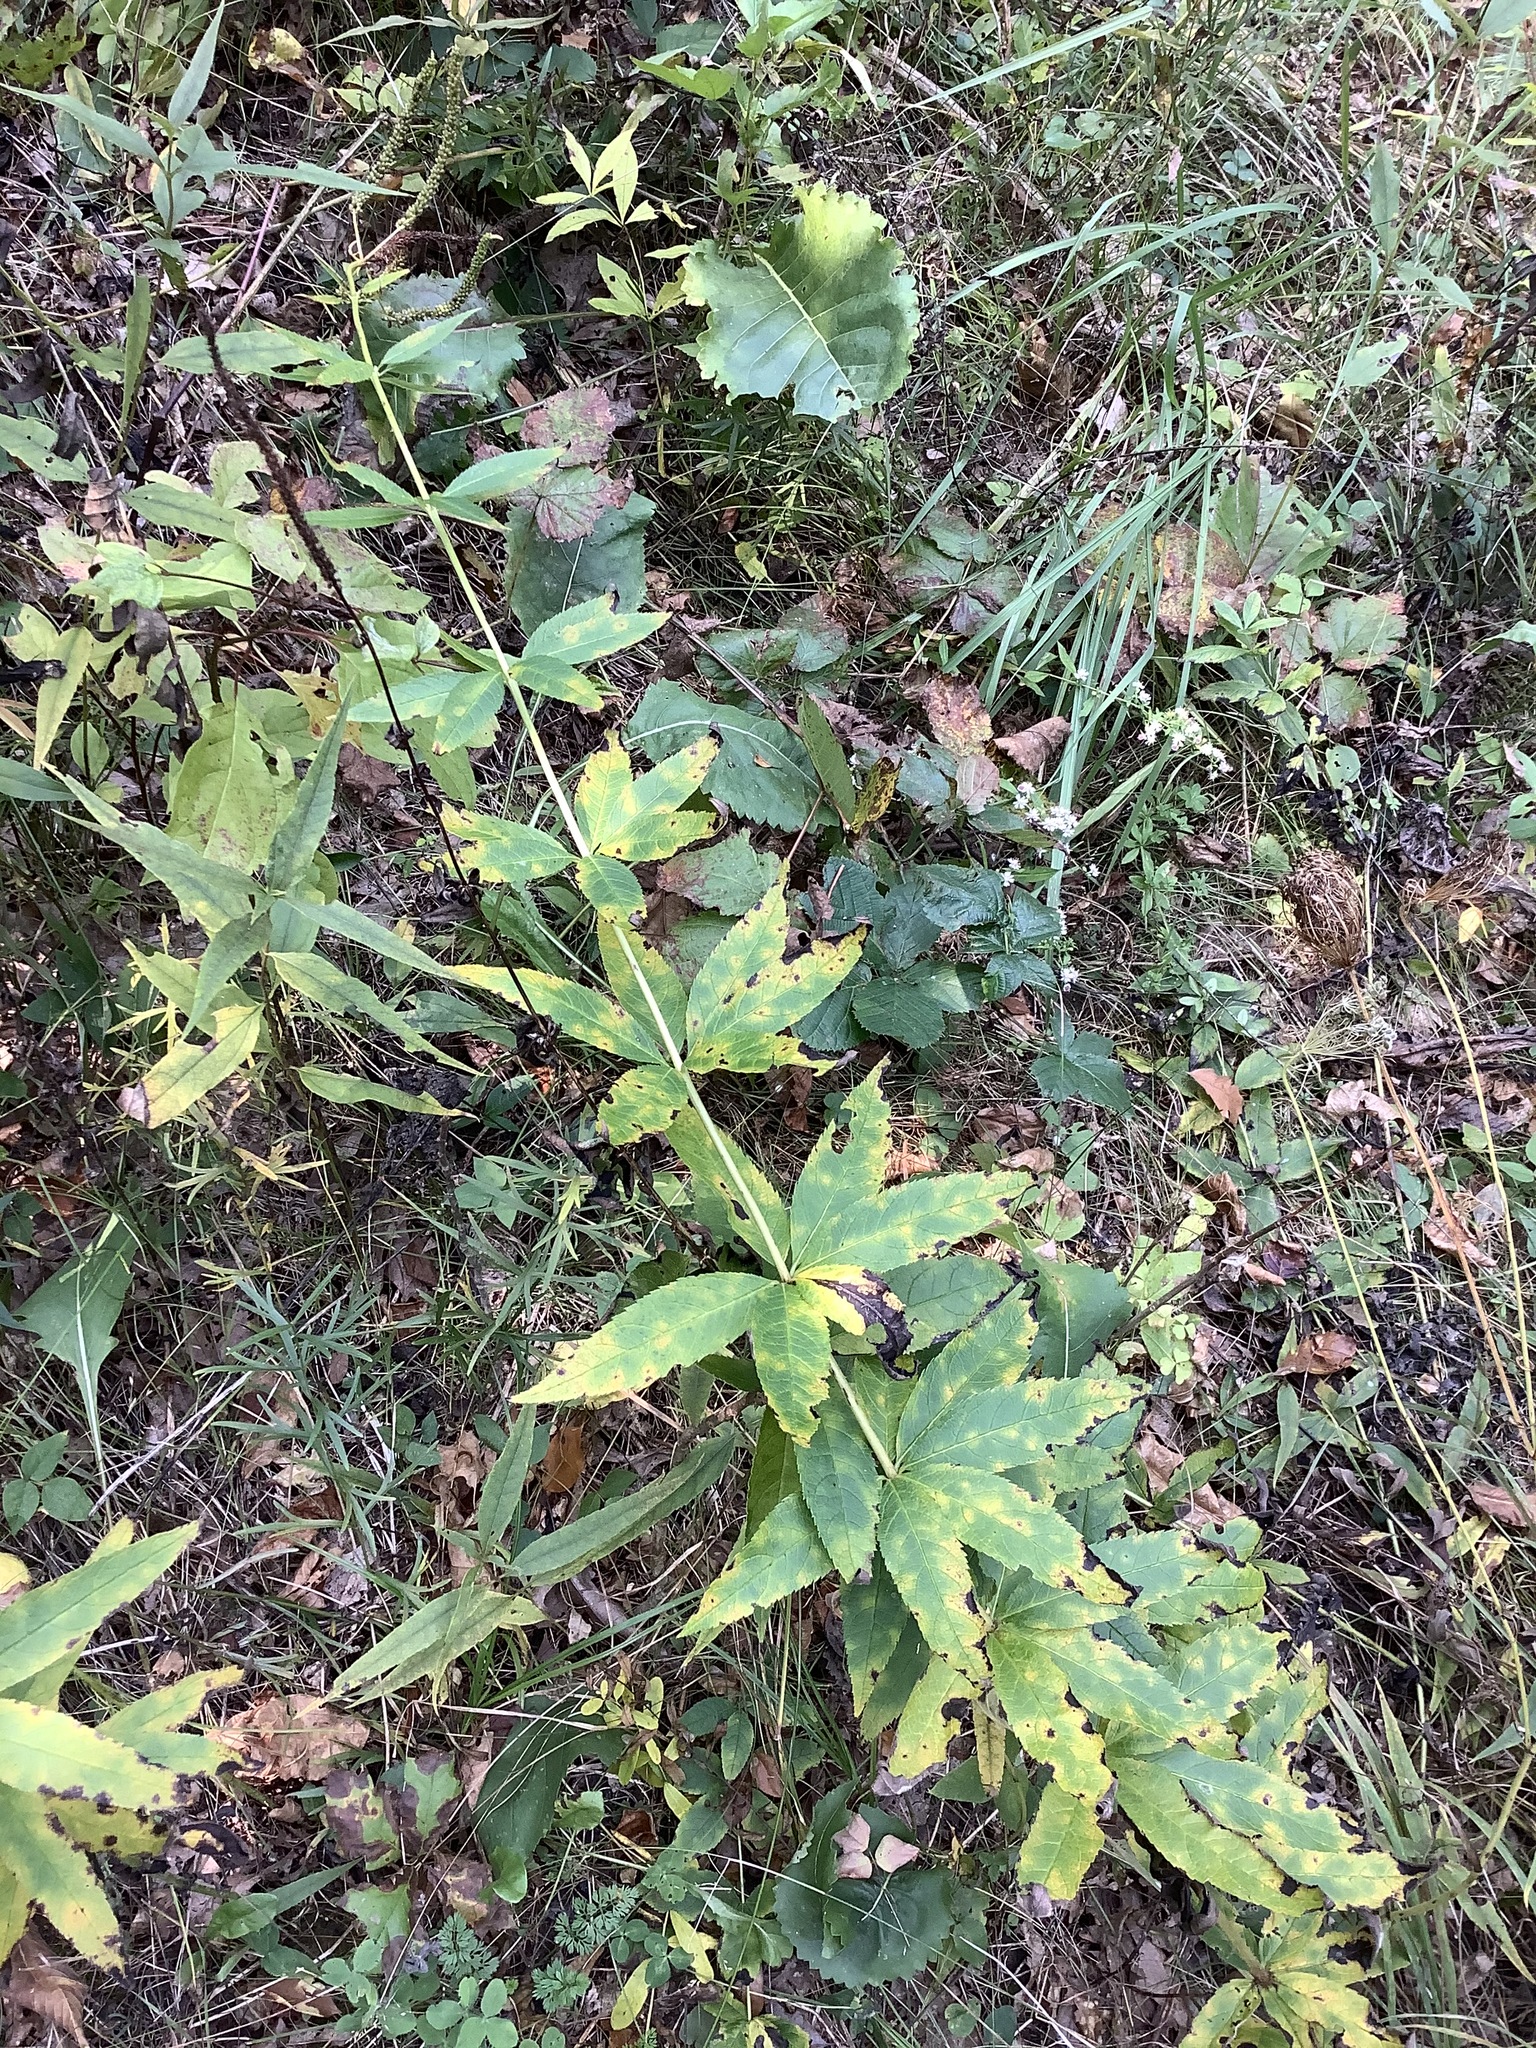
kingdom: Plantae
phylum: Tracheophyta
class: Magnoliopsida
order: Lamiales
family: Plantaginaceae
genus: Veronicastrum
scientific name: Veronicastrum virginicum
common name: Blackroot
